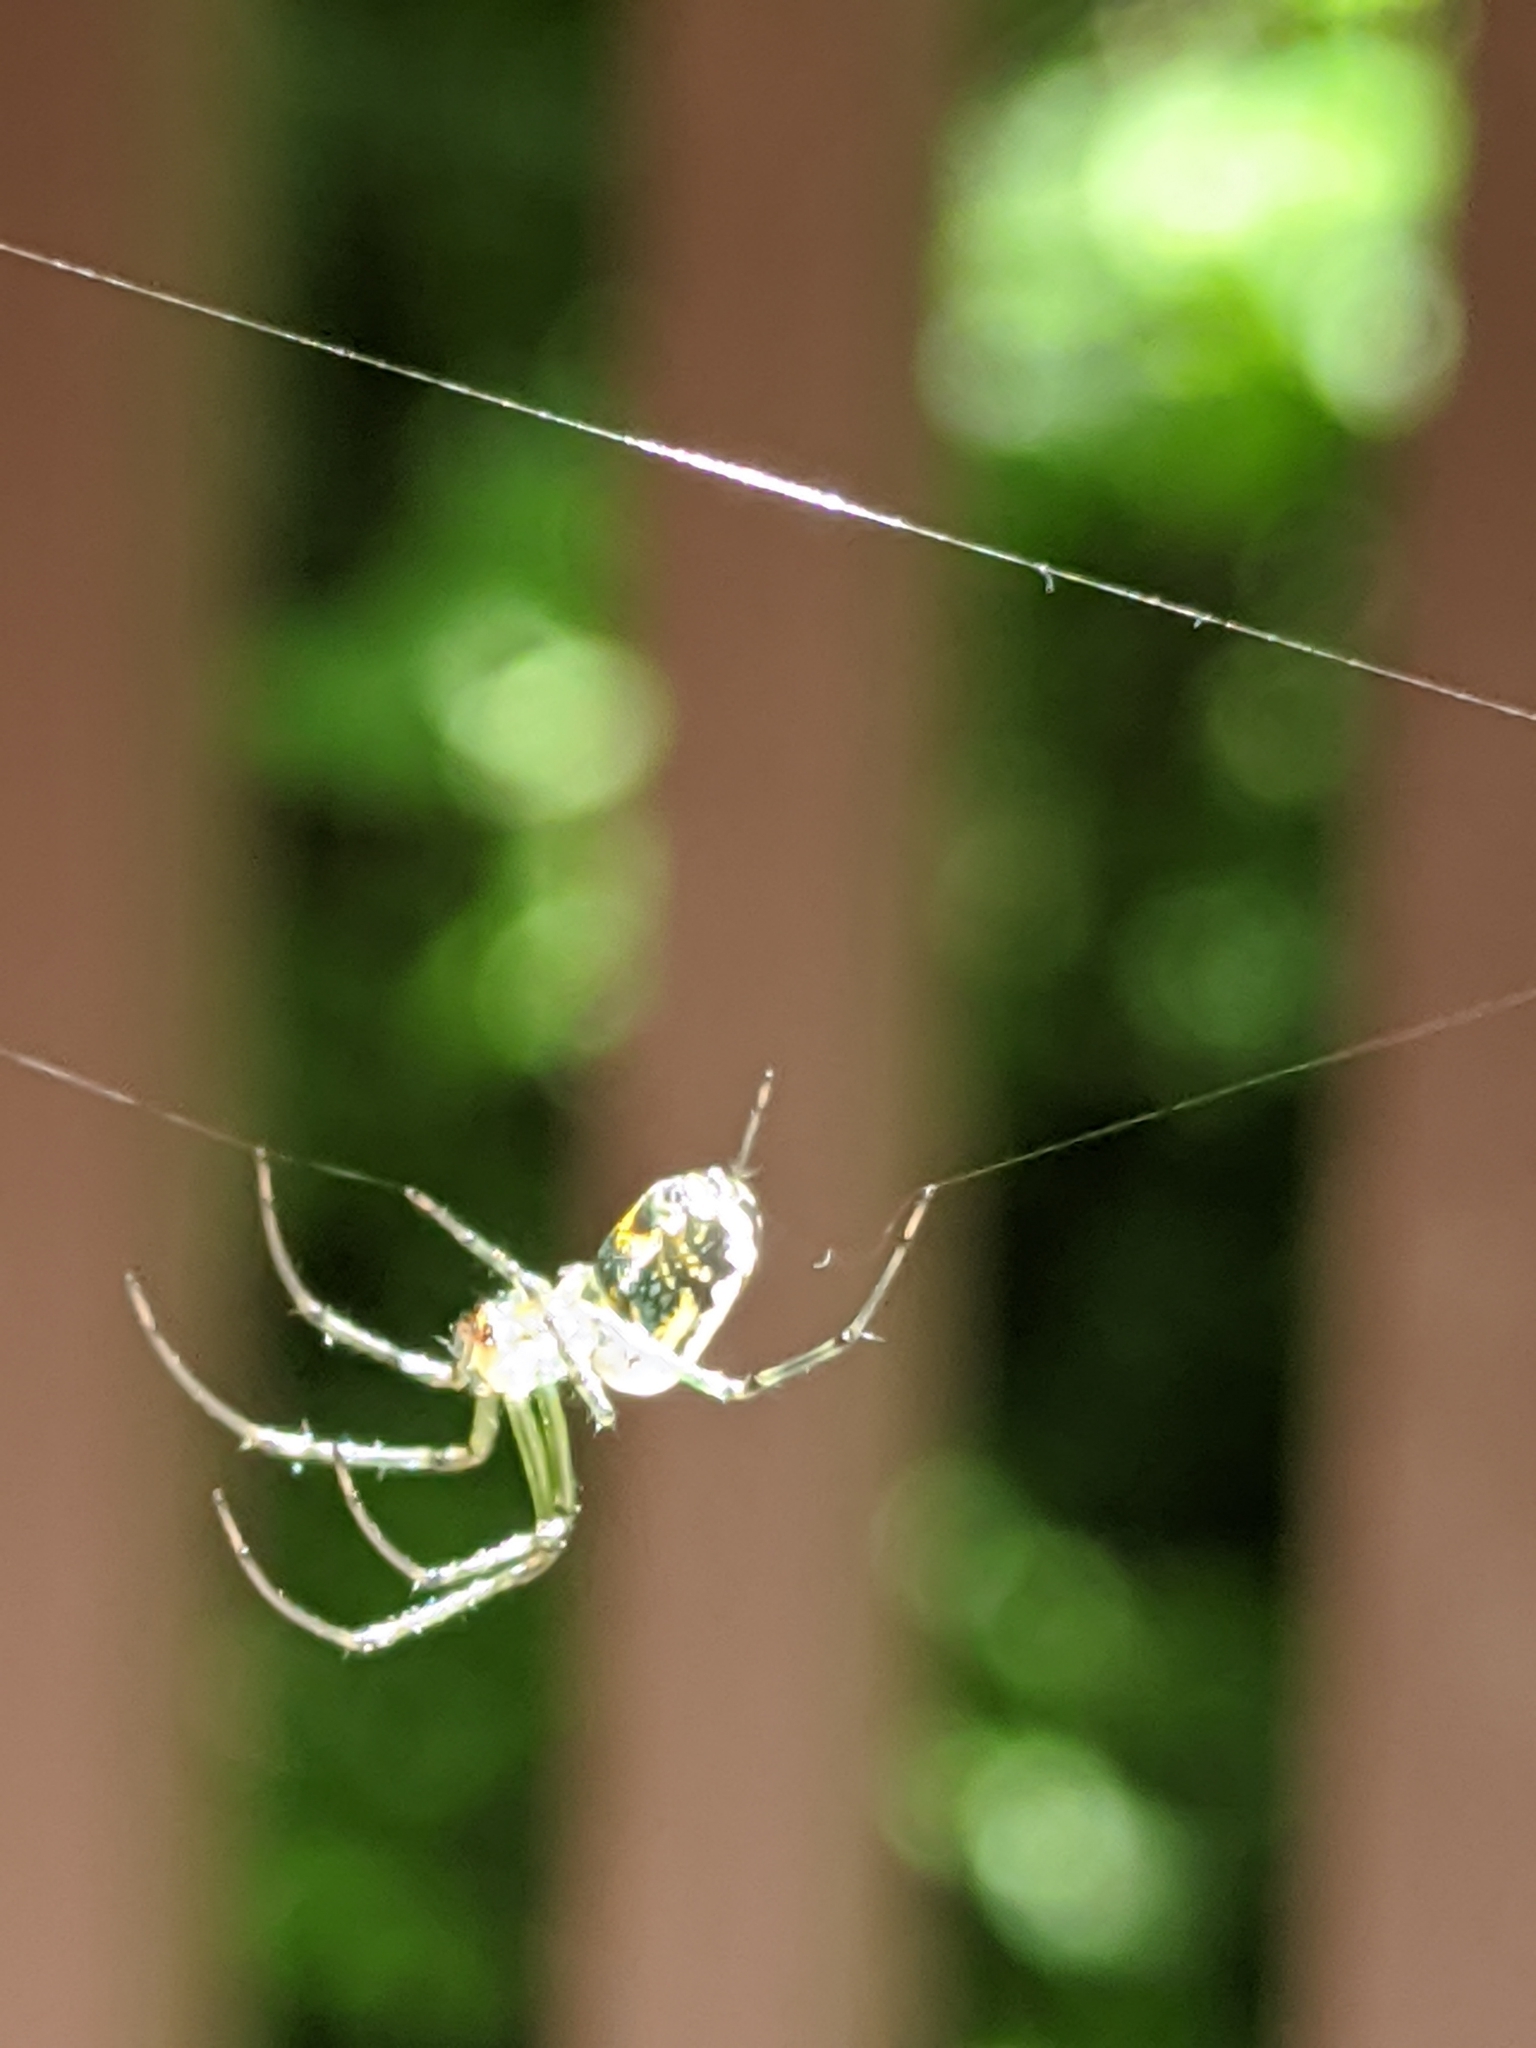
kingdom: Animalia
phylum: Arthropoda
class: Arachnida
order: Araneae
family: Tetragnathidae
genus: Leucauge
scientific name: Leucauge venusta
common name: Longjawed orb weavers
